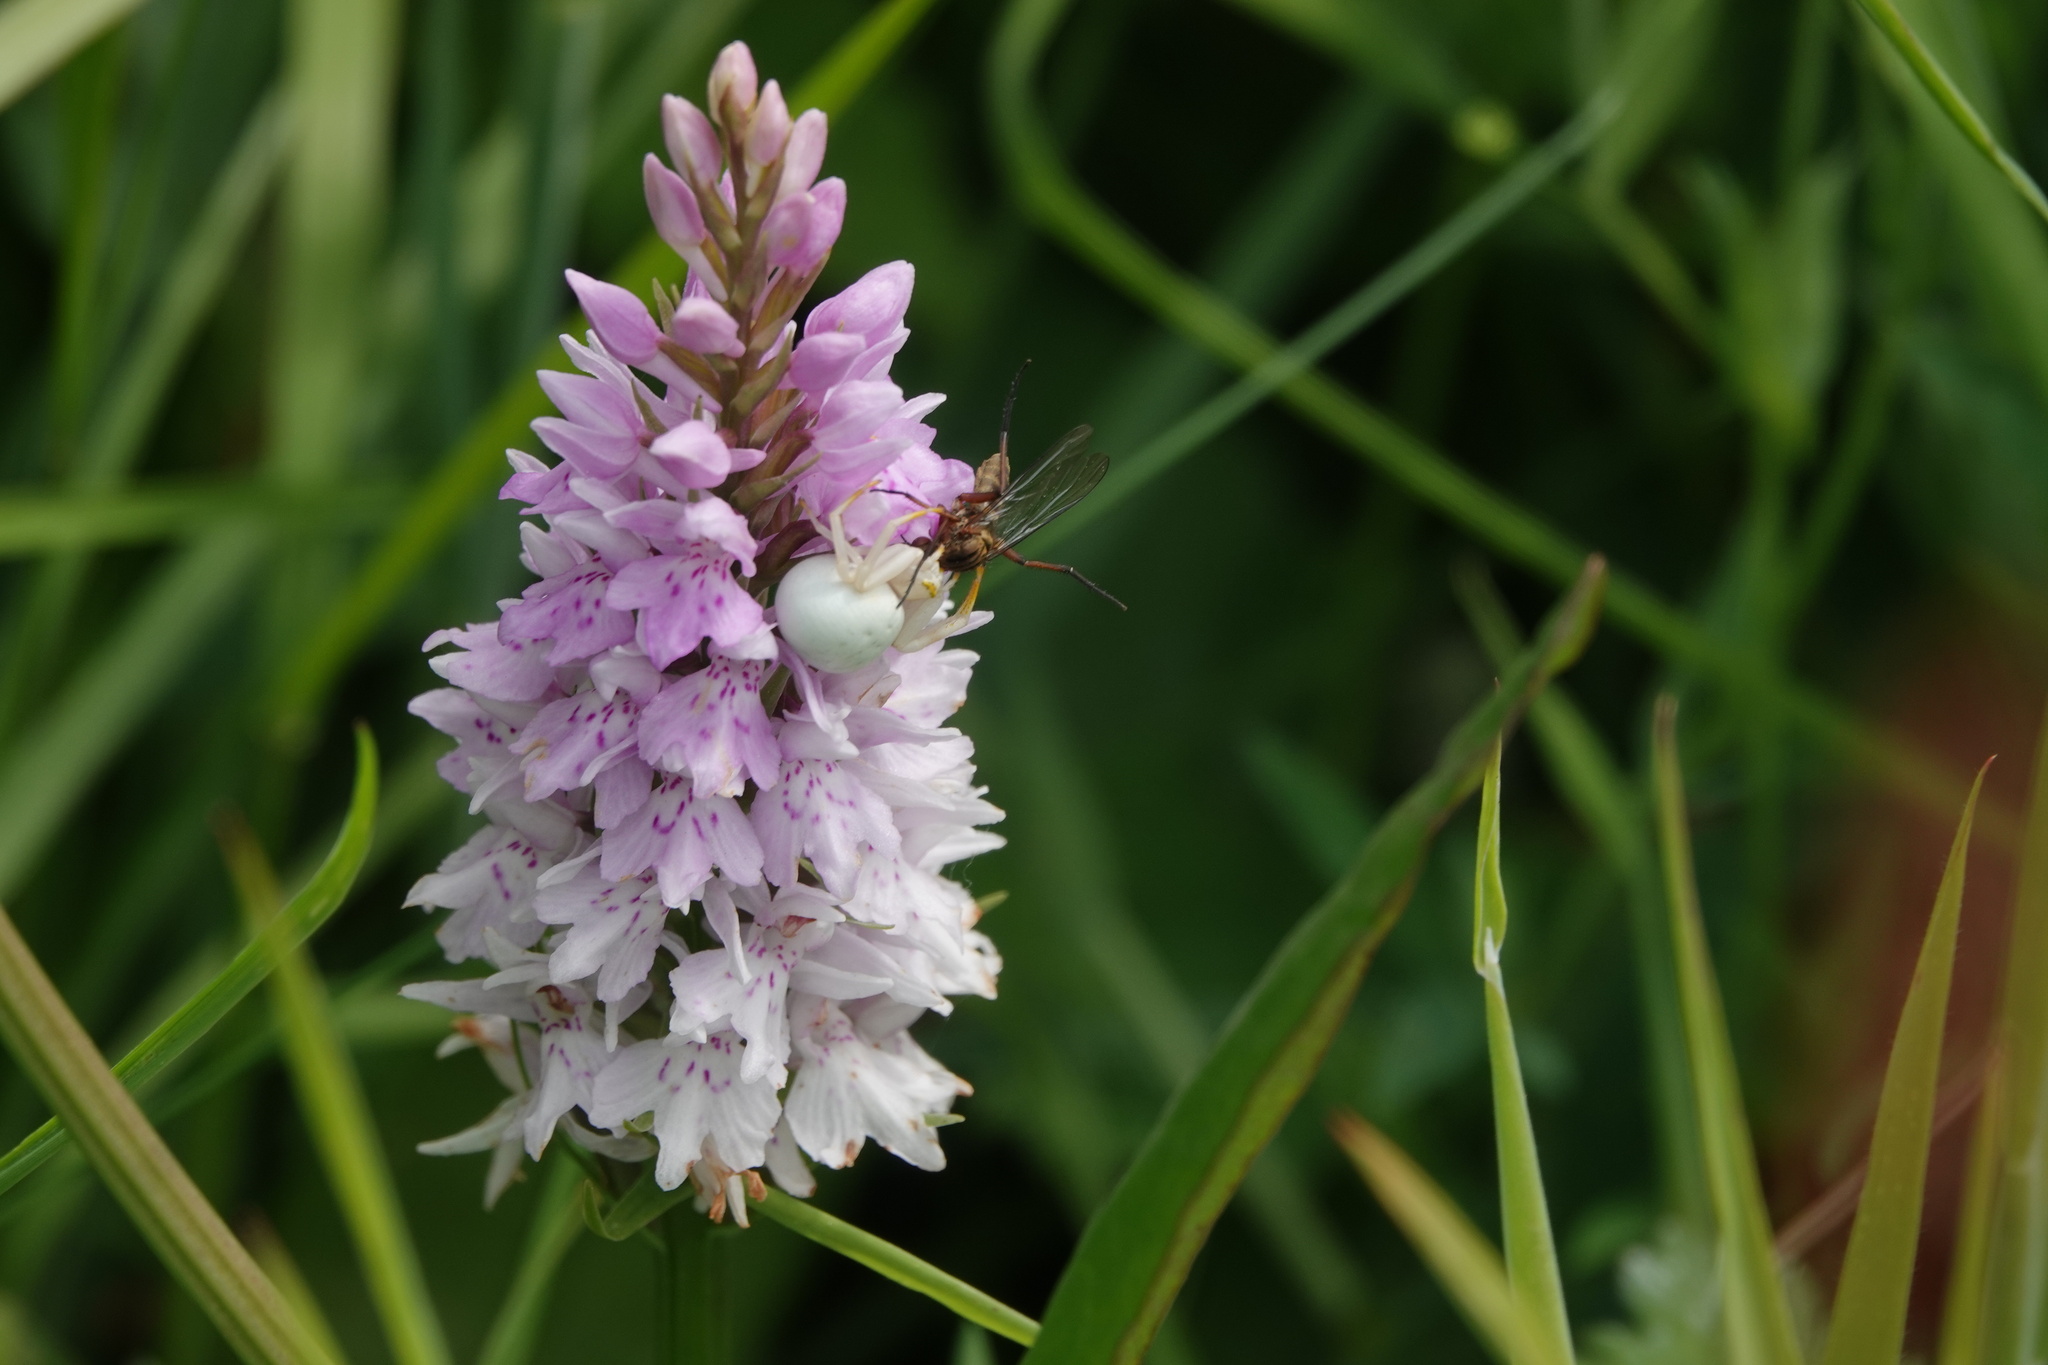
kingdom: Animalia
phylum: Arthropoda
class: Arachnida
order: Araneae
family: Thomisidae
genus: Misumena
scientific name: Misumena vatia
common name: Goldenrod crab spider
